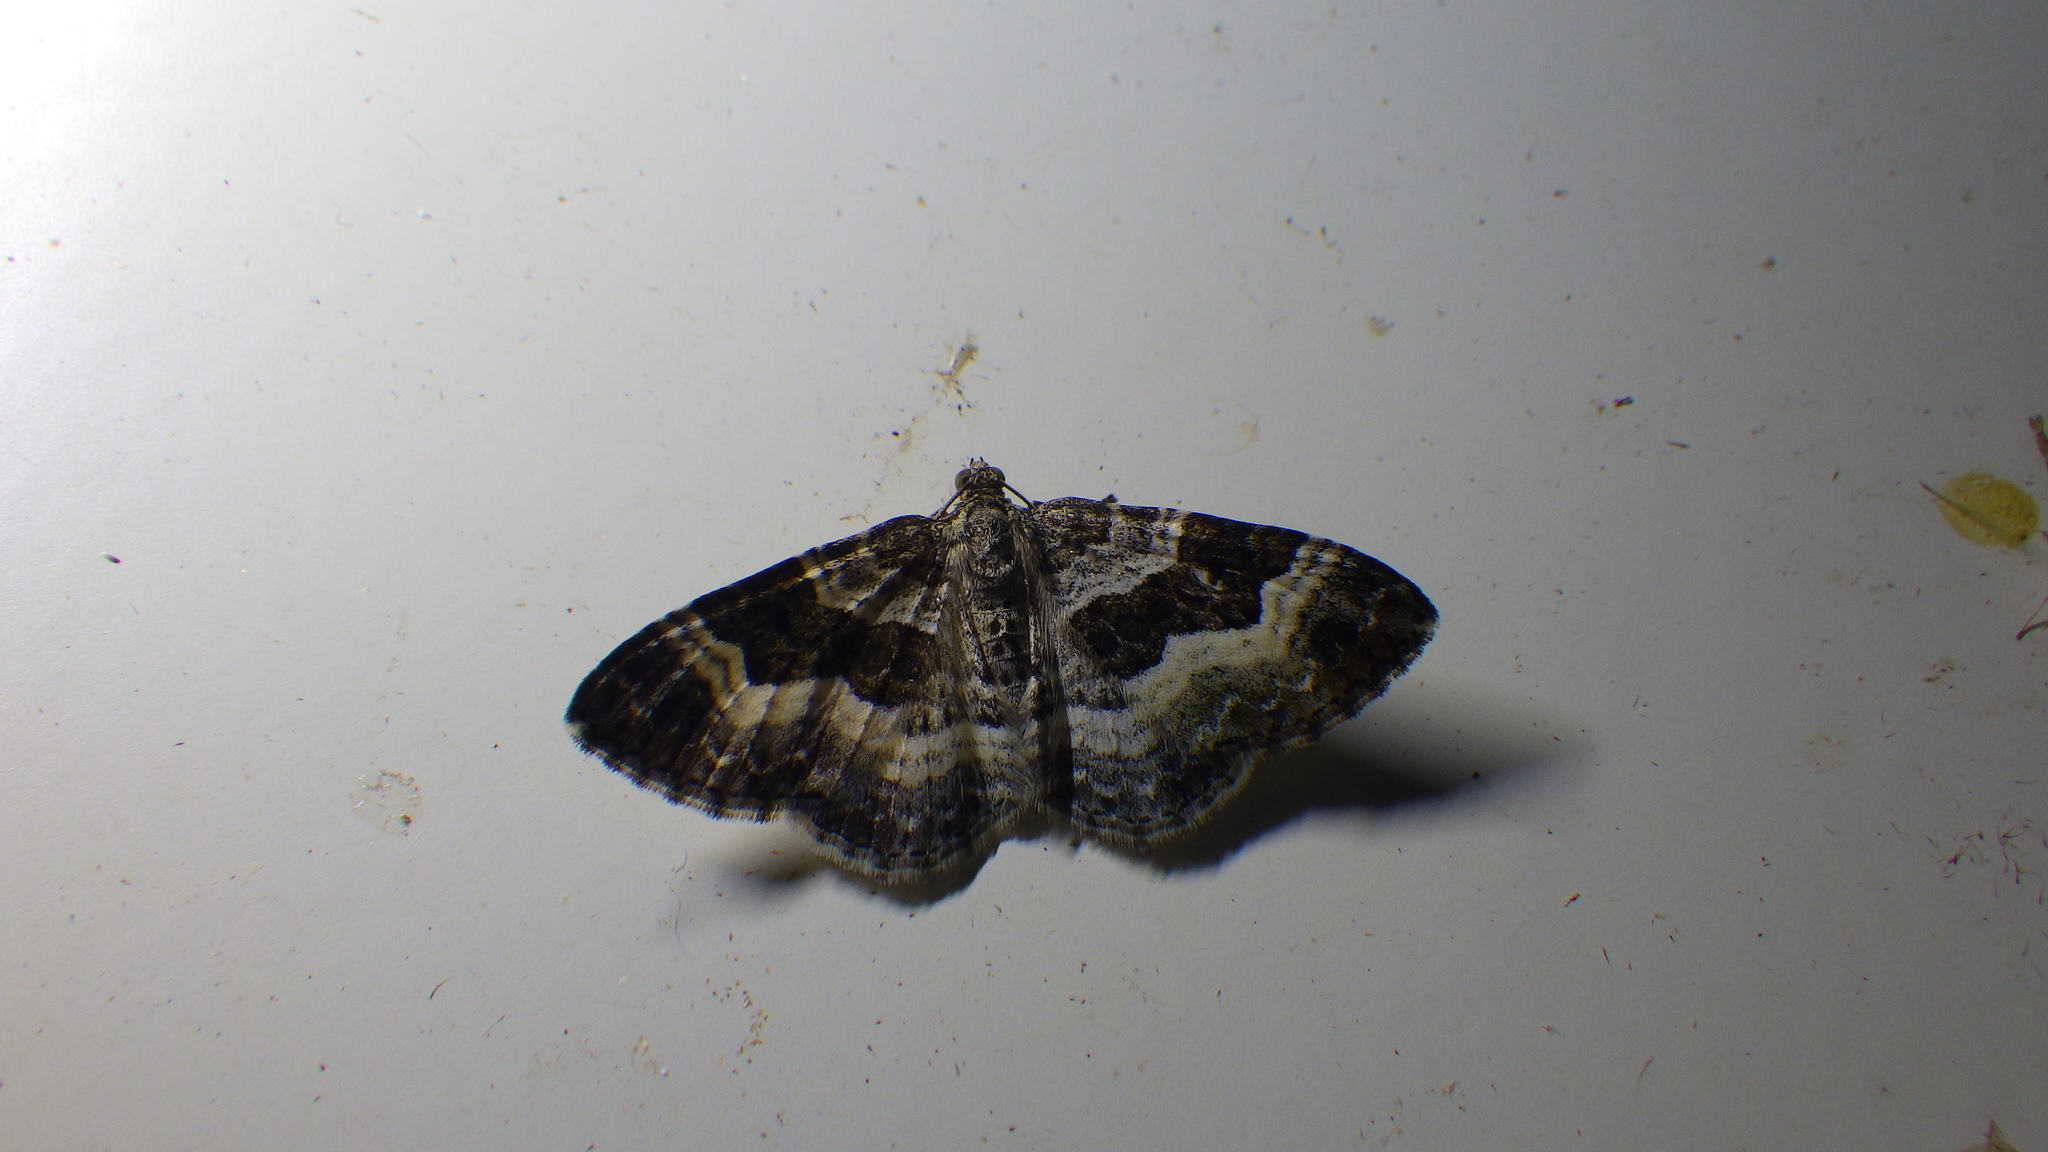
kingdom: Animalia
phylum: Arthropoda
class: Insecta
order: Lepidoptera
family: Geometridae
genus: Epirrhoe
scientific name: Epirrhoe alternata
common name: Common carpet
